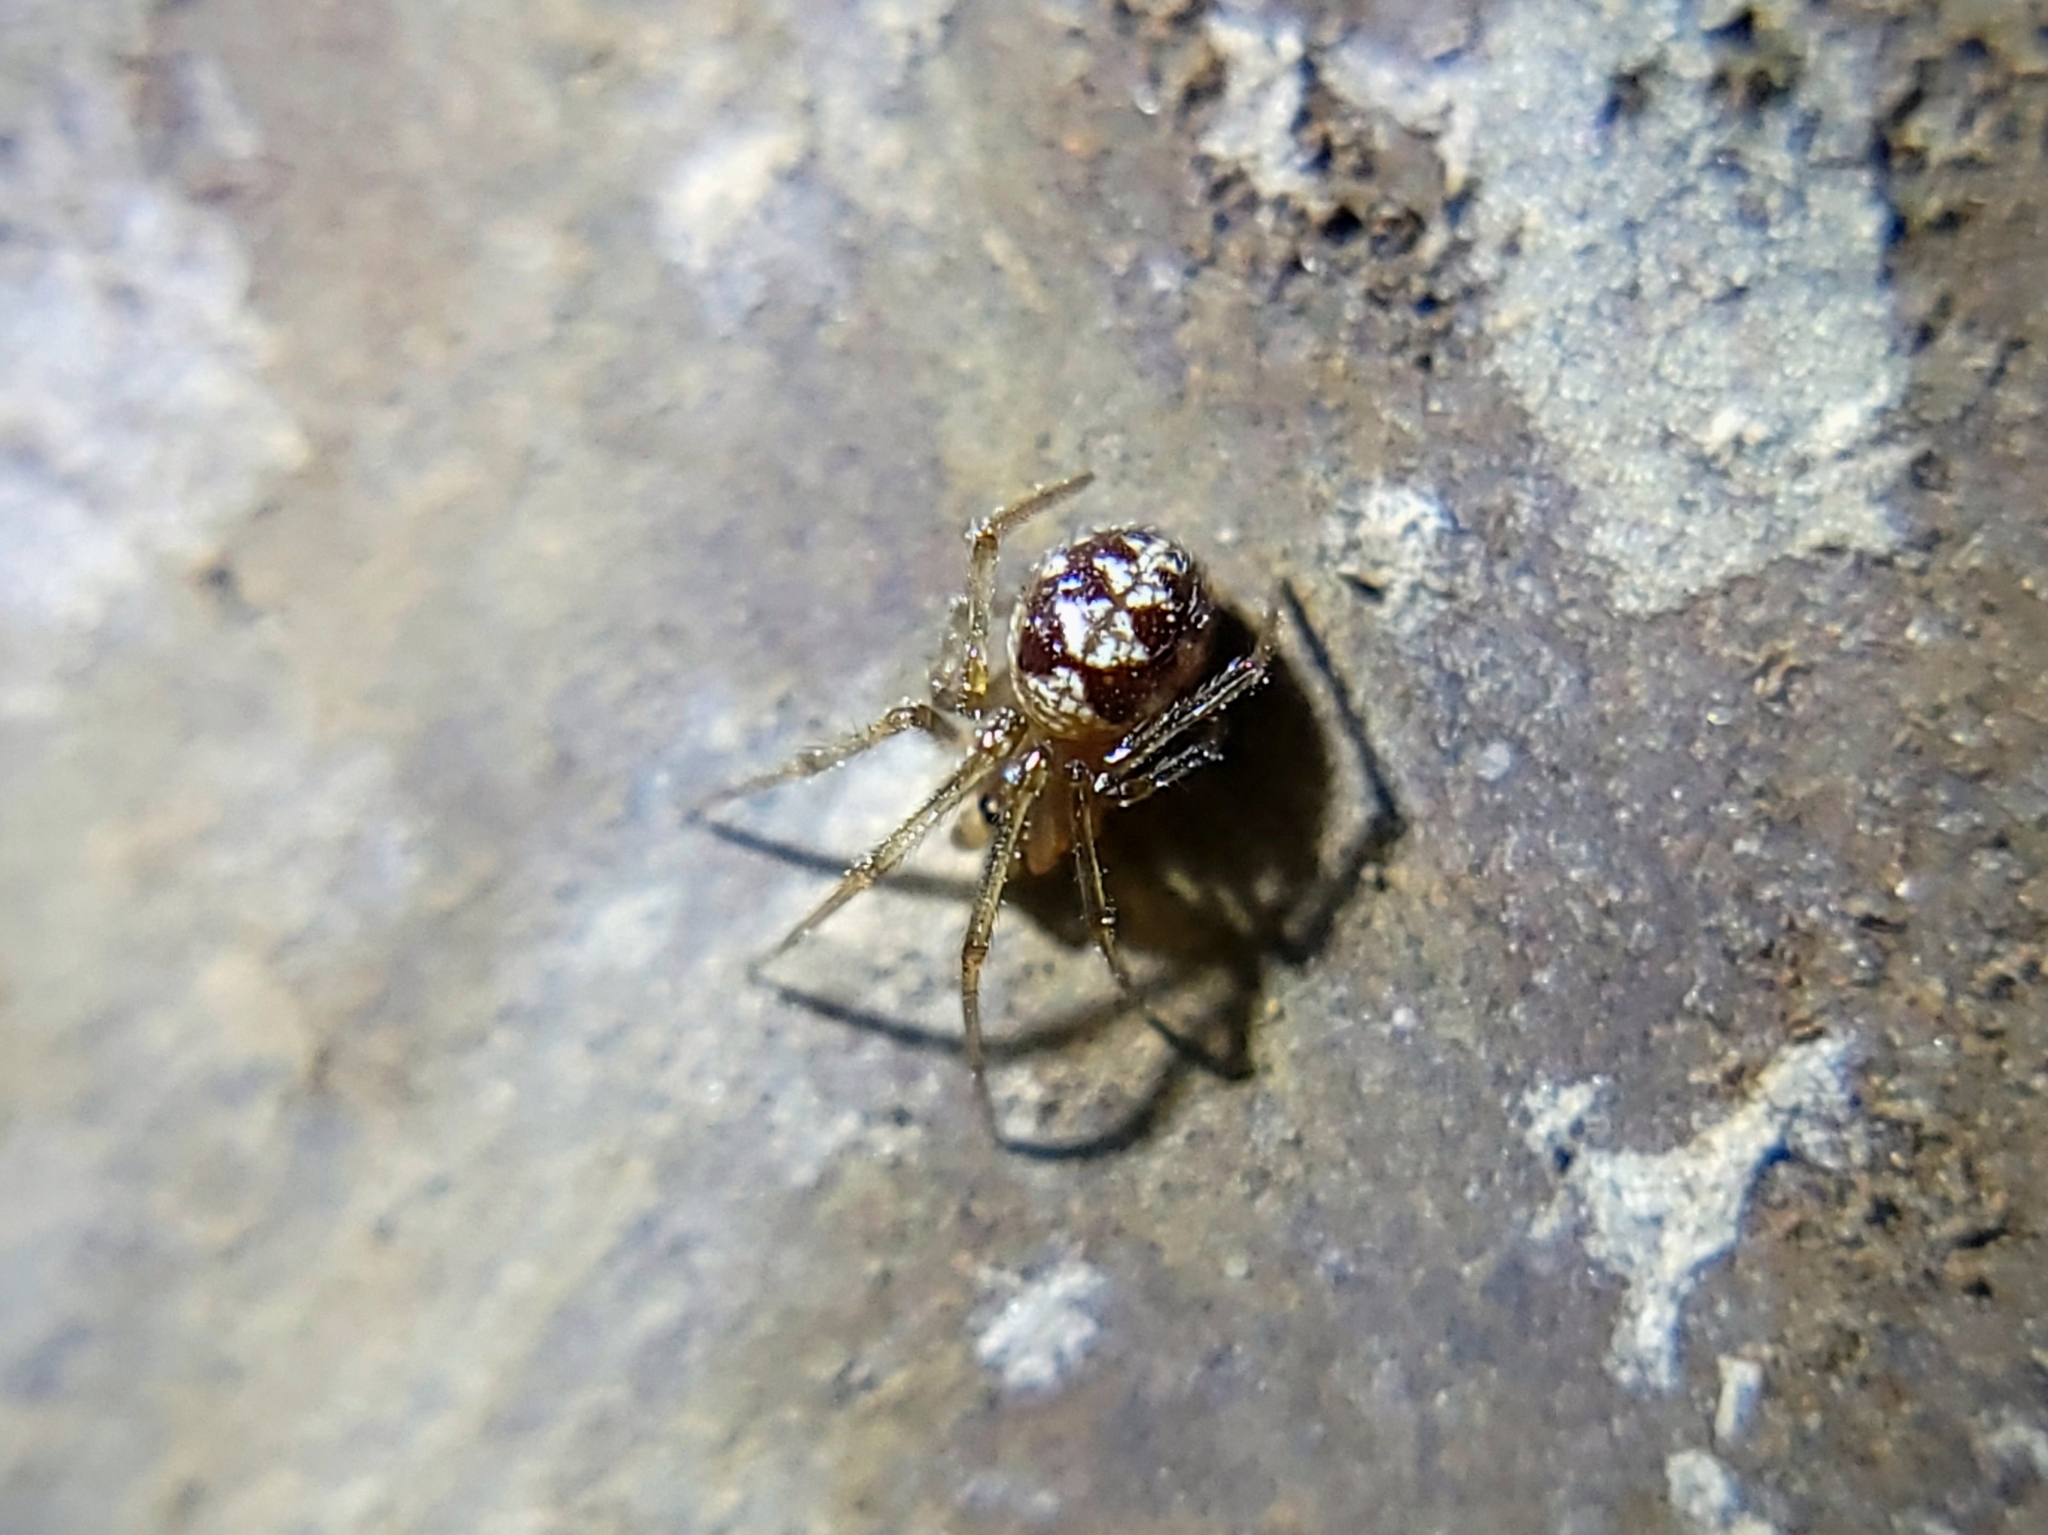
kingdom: Animalia
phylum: Arthropoda
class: Arachnida
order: Araneae
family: Theridiidae
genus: Steatoda
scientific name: Steatoda triangulosa
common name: Triangulate bud spider
